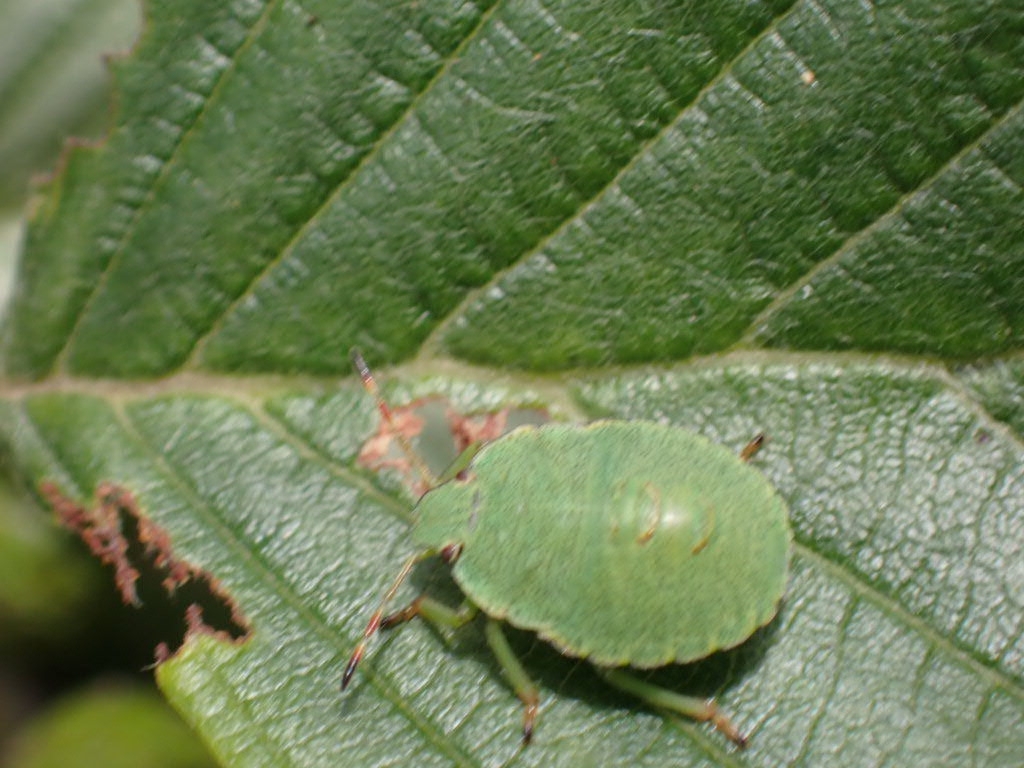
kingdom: Animalia
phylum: Arthropoda
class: Insecta
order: Hemiptera
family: Pentatomidae
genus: Palomena
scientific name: Palomena prasina
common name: Green shieldbug
